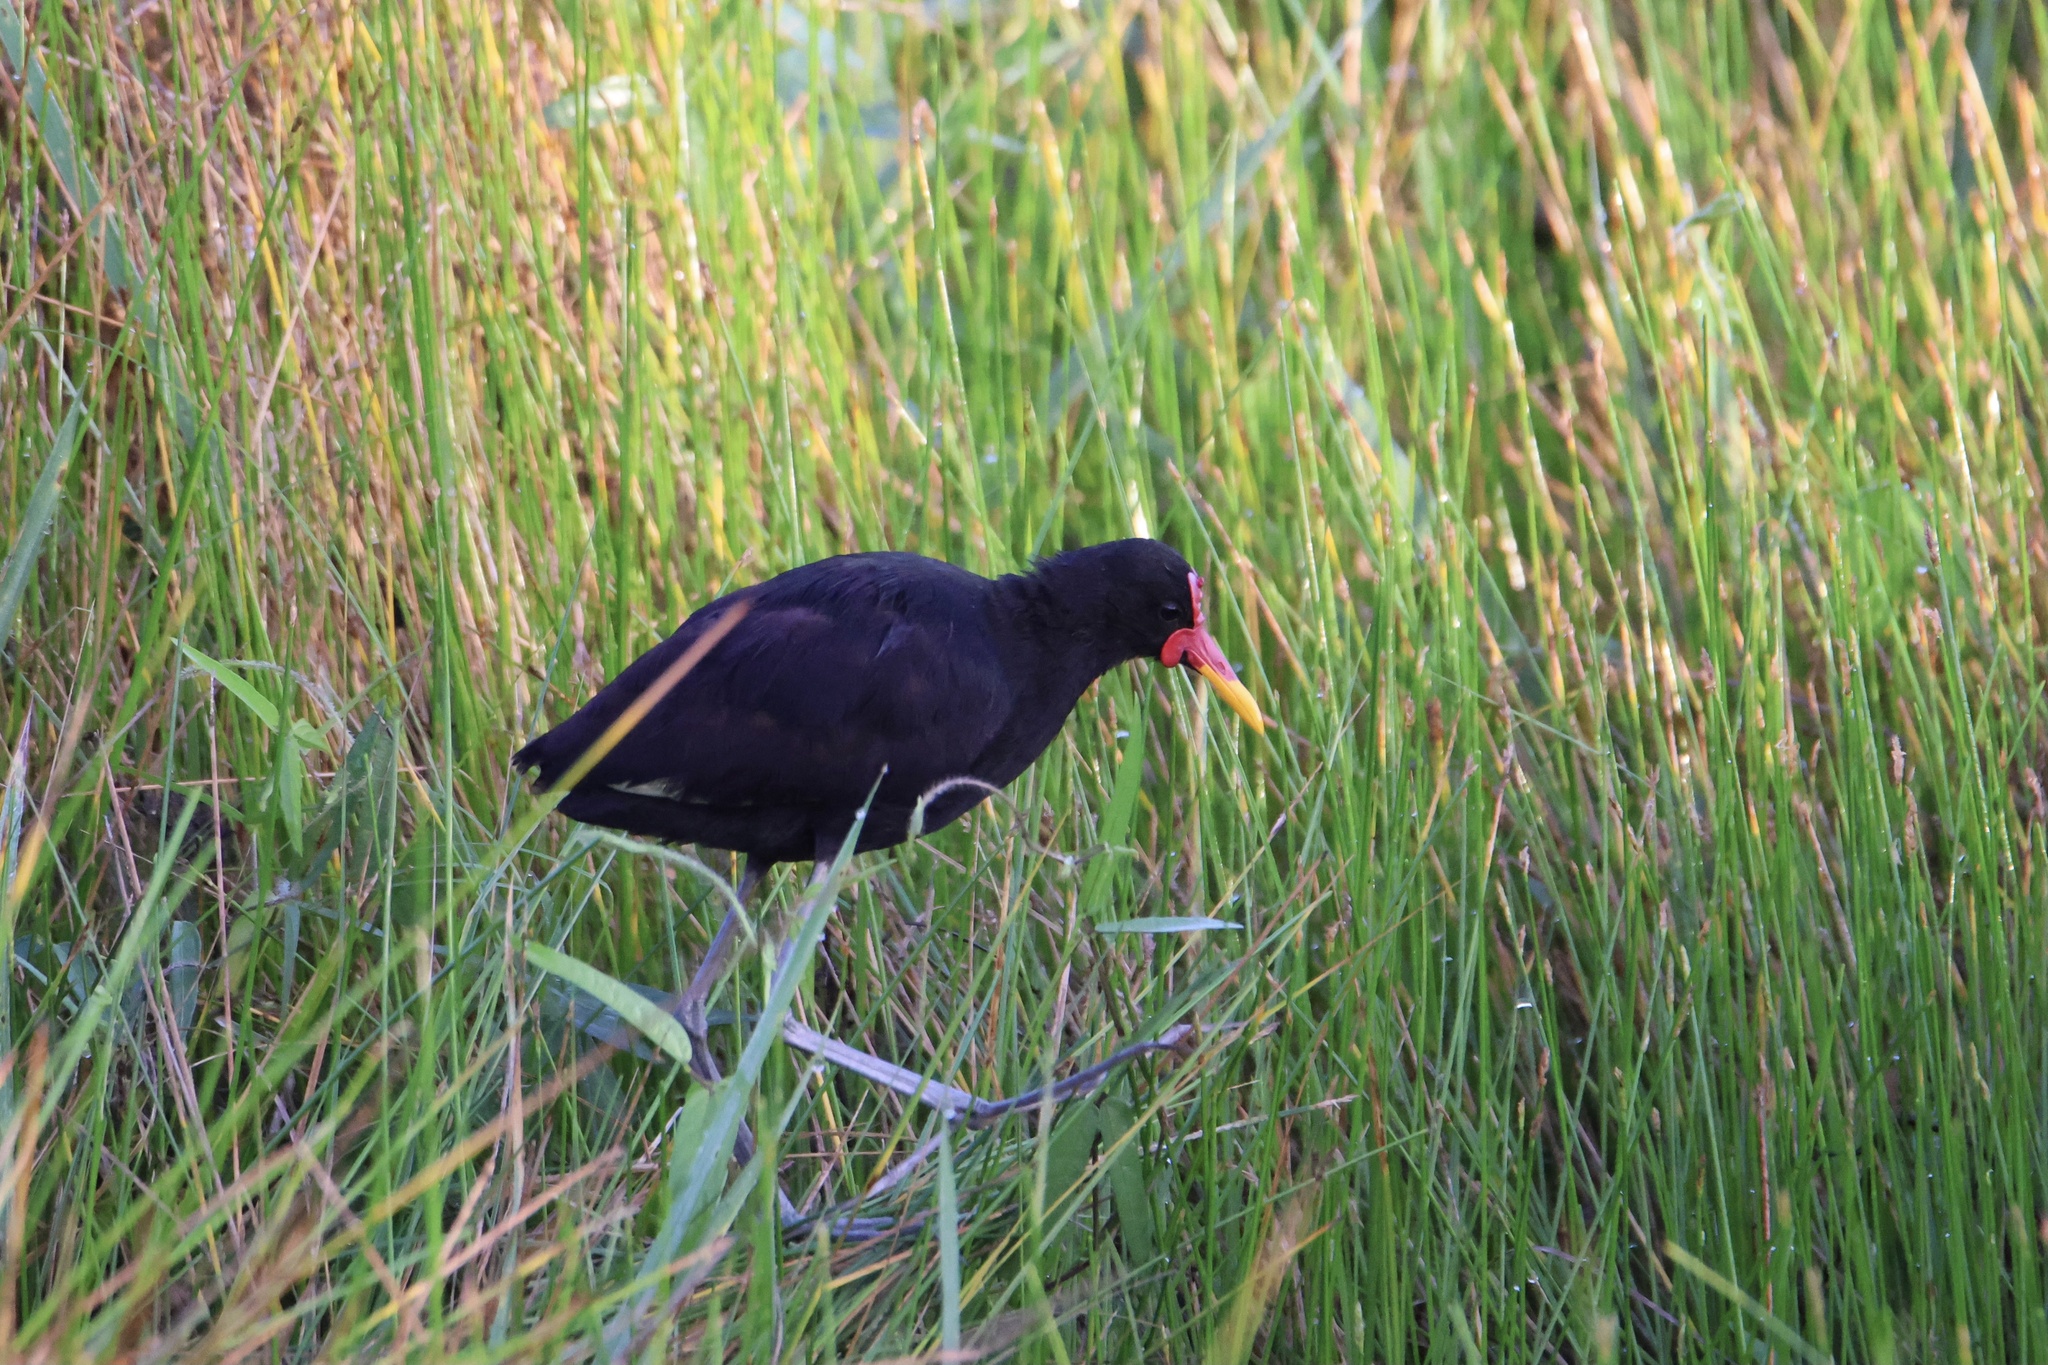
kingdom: Animalia
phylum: Chordata
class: Aves
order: Charadriiformes
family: Jacanidae
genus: Jacana
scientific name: Jacana jacana
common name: Wattled jacana
